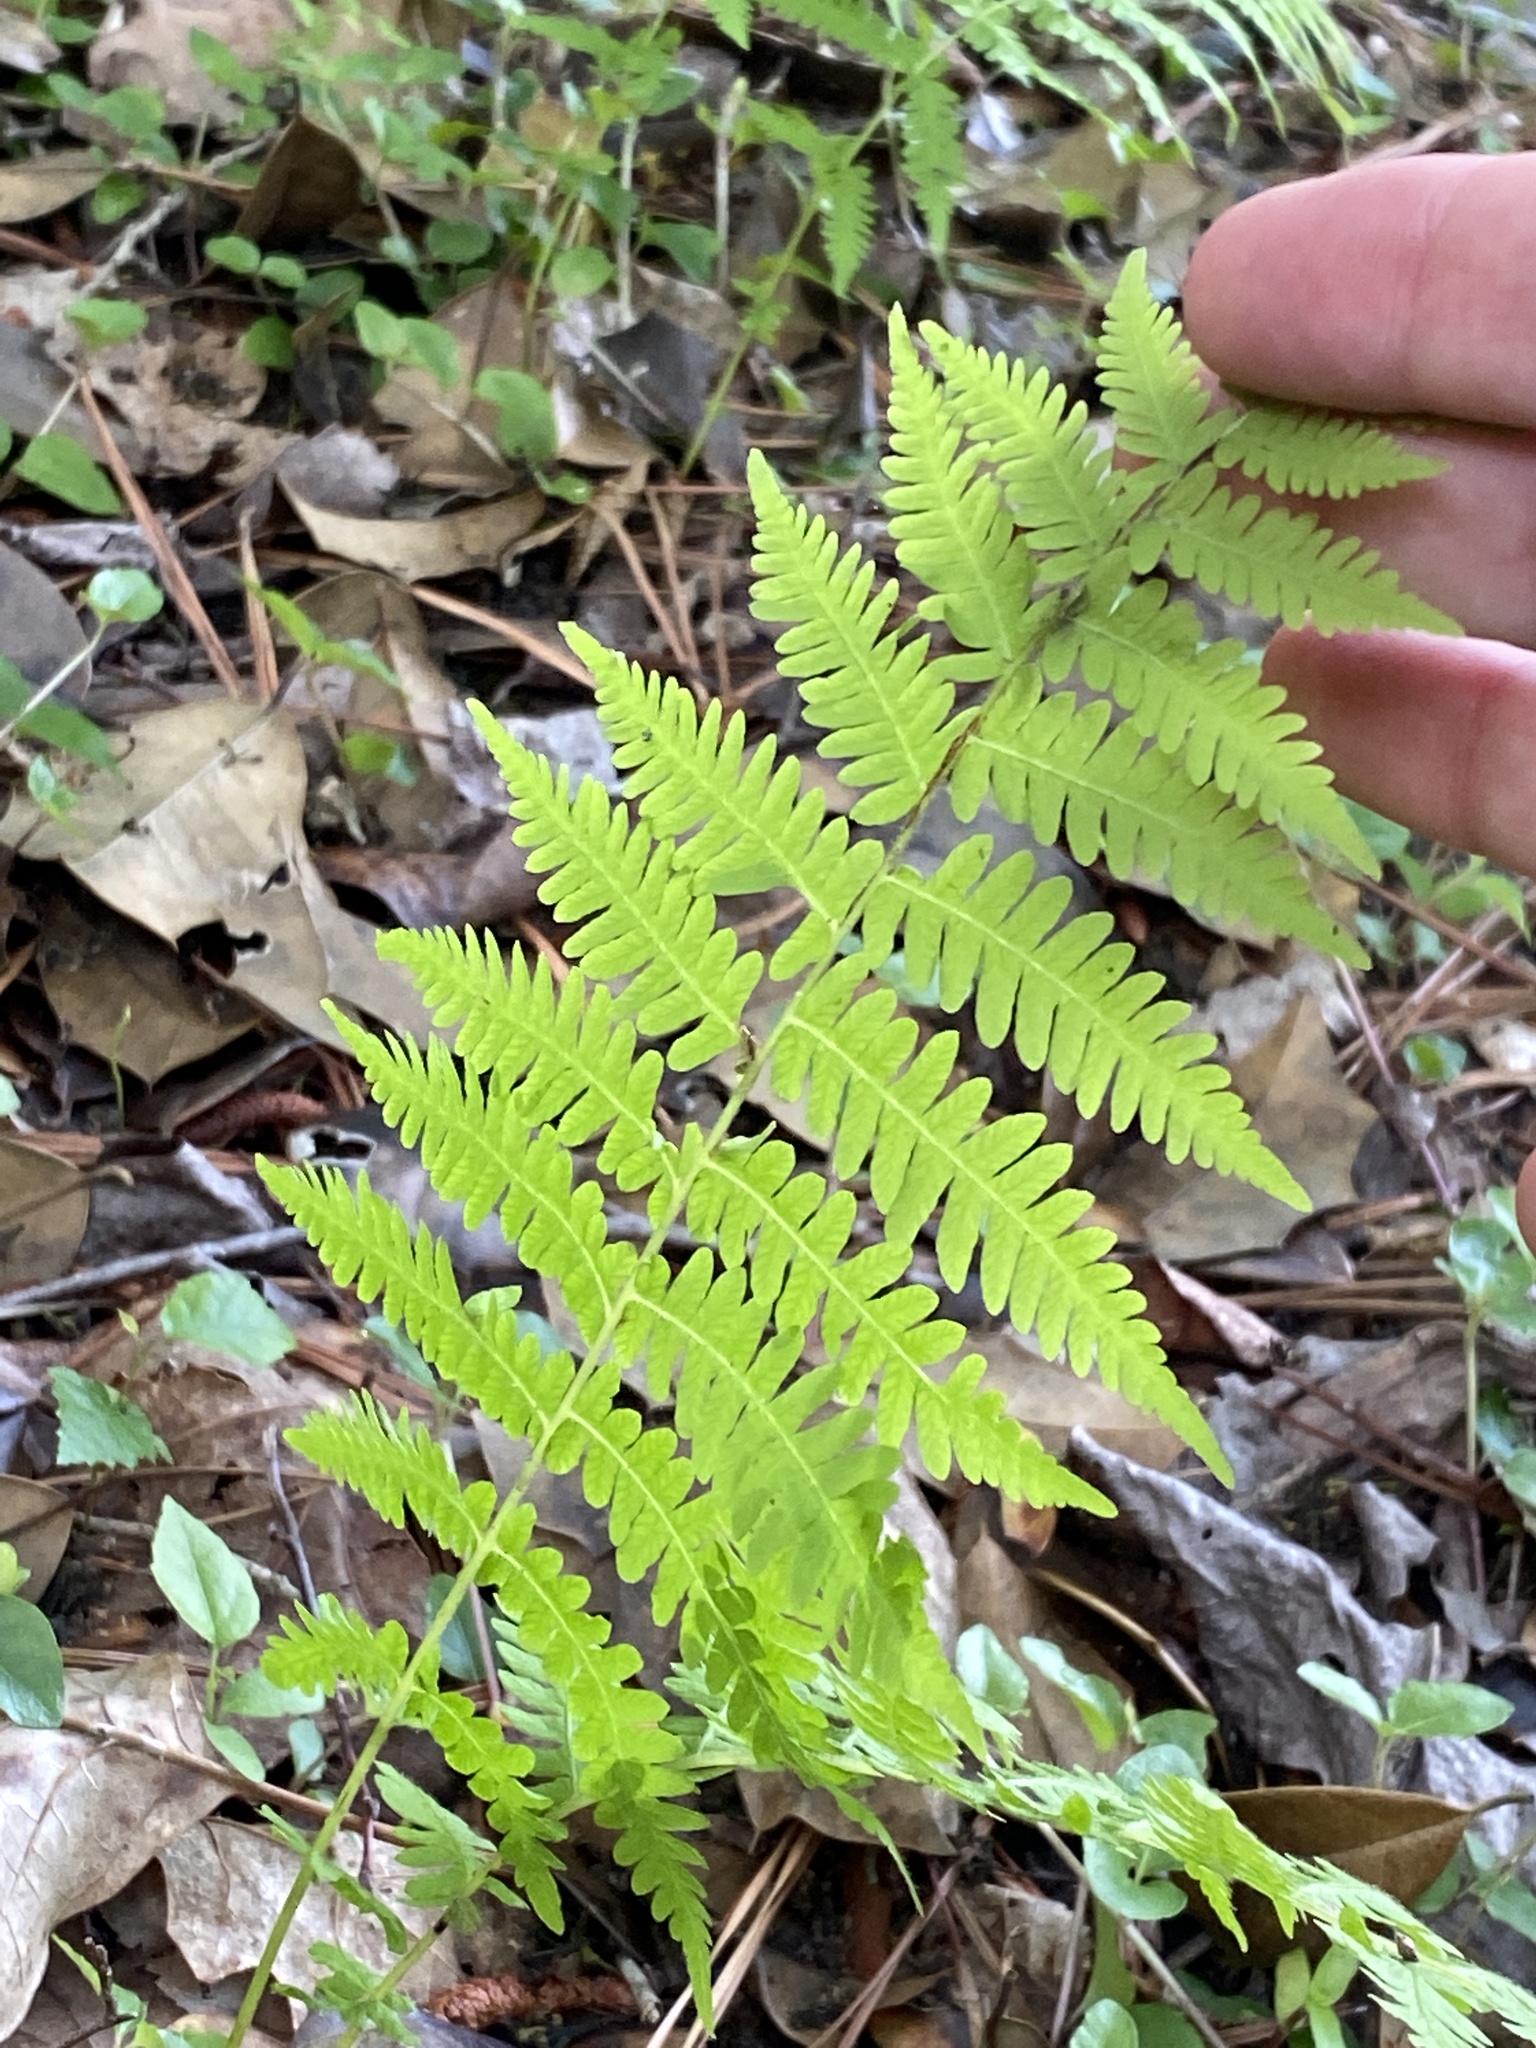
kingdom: Plantae
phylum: Tracheophyta
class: Polypodiopsida
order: Polypodiales
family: Thelypteridaceae
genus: Amauropelta
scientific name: Amauropelta noveboracensis
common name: New york fern
